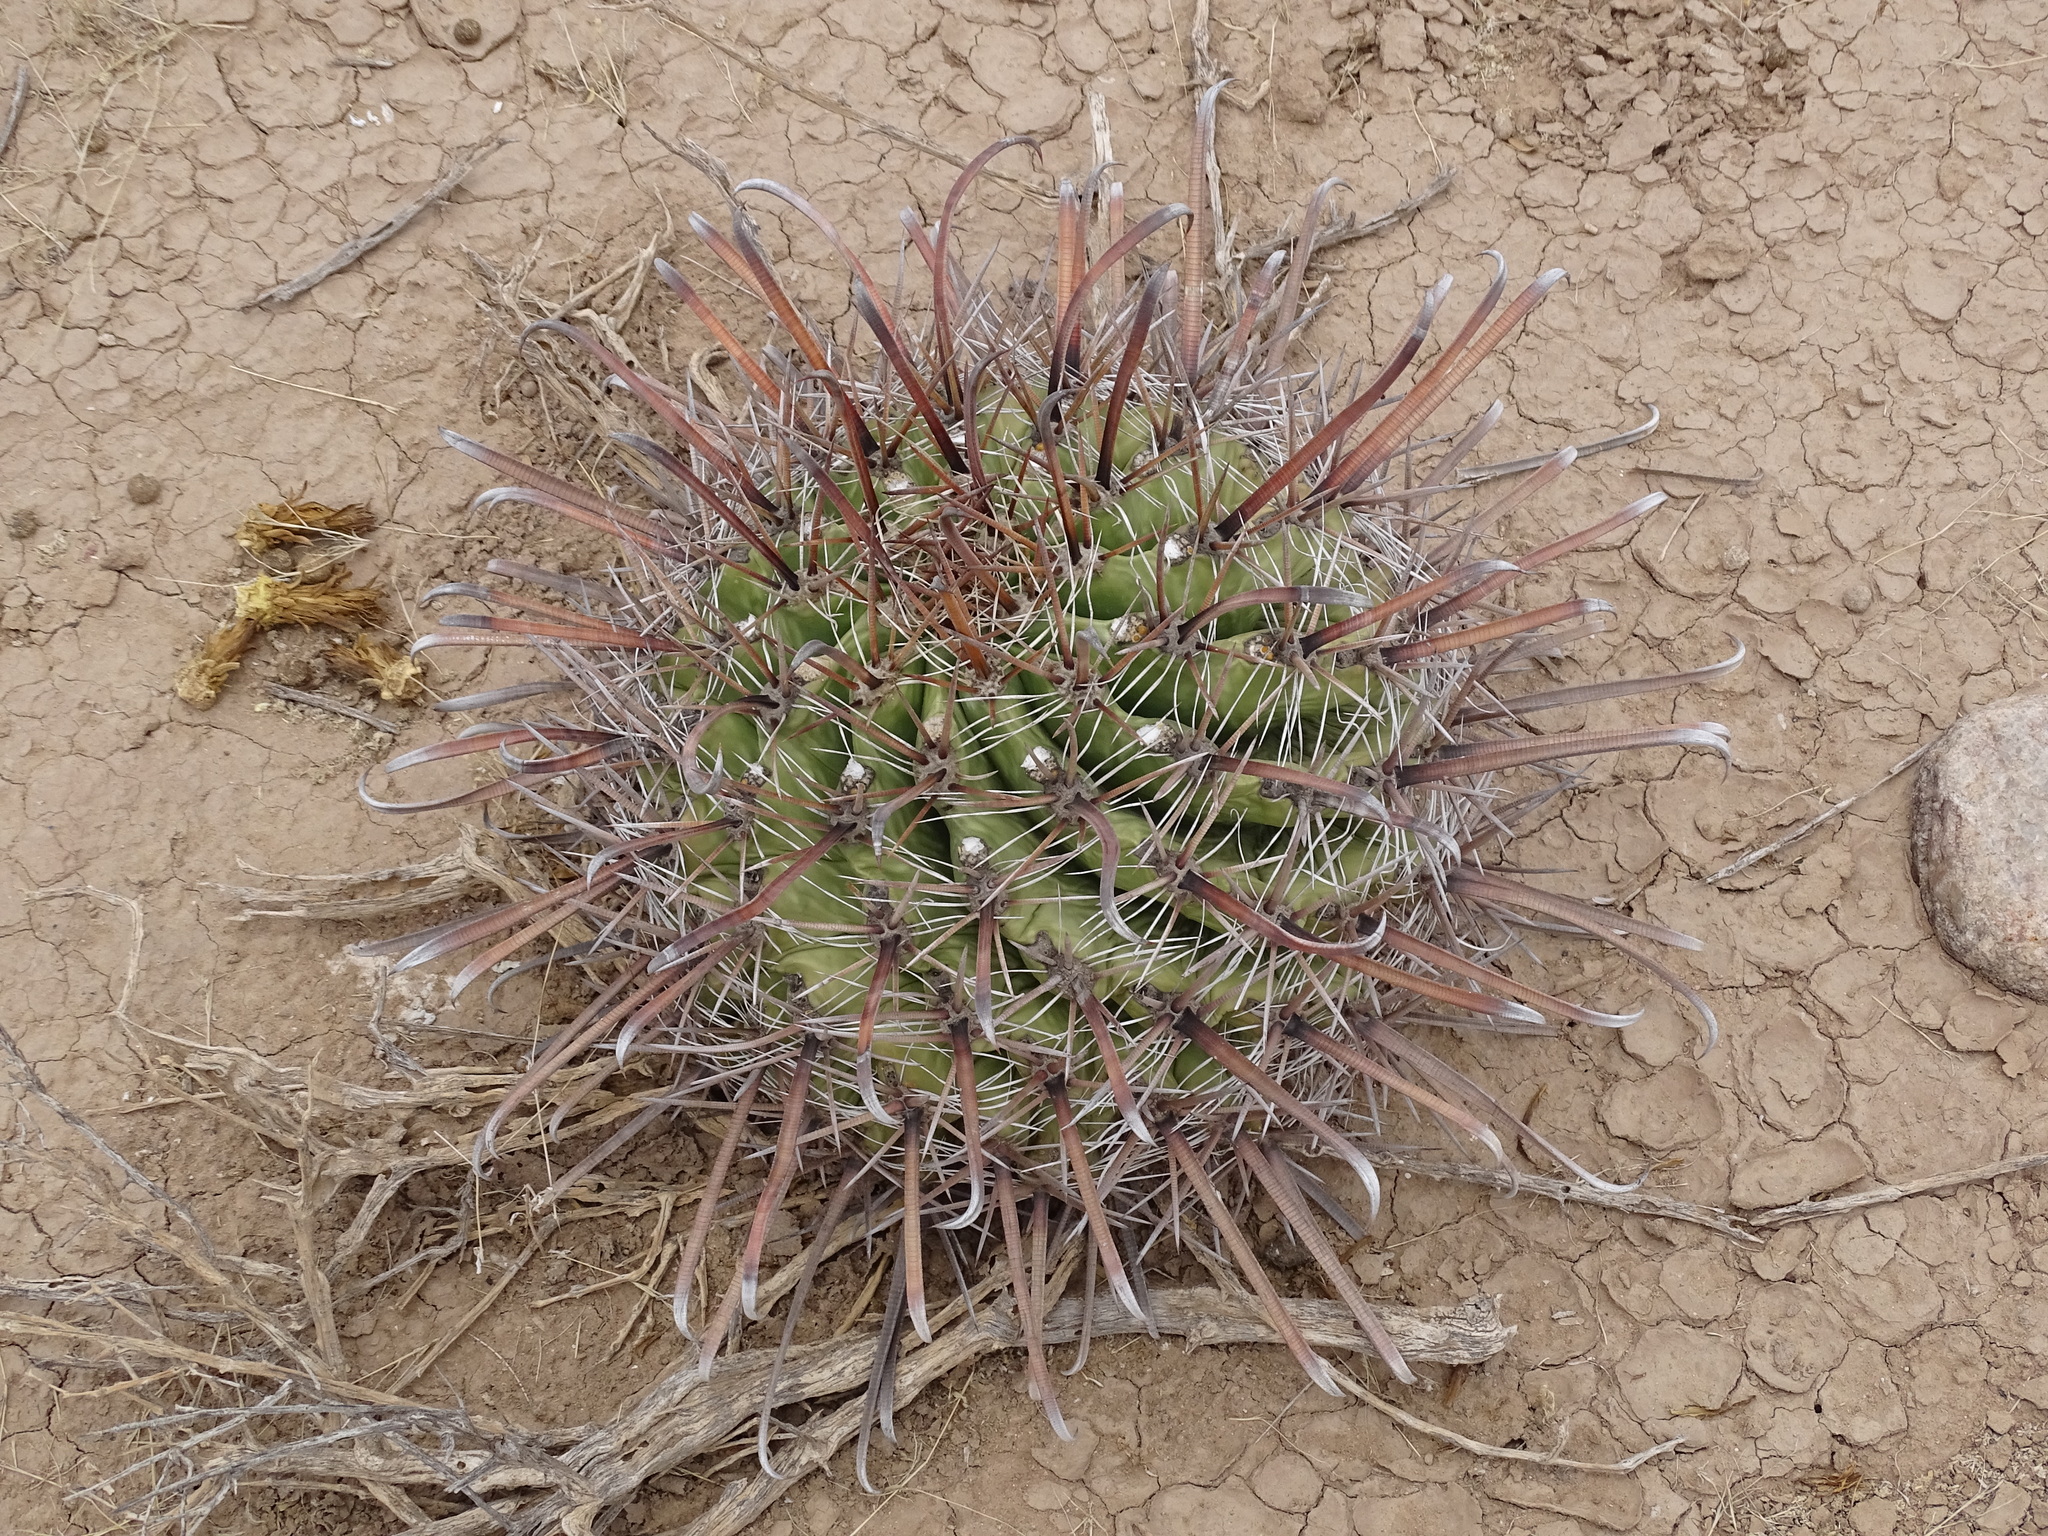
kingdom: Plantae
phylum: Tracheophyta
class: Magnoliopsida
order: Caryophyllales
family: Cactaceae
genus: Ferocactus
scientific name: Ferocactus wislizeni
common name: Candy barrel cactus
